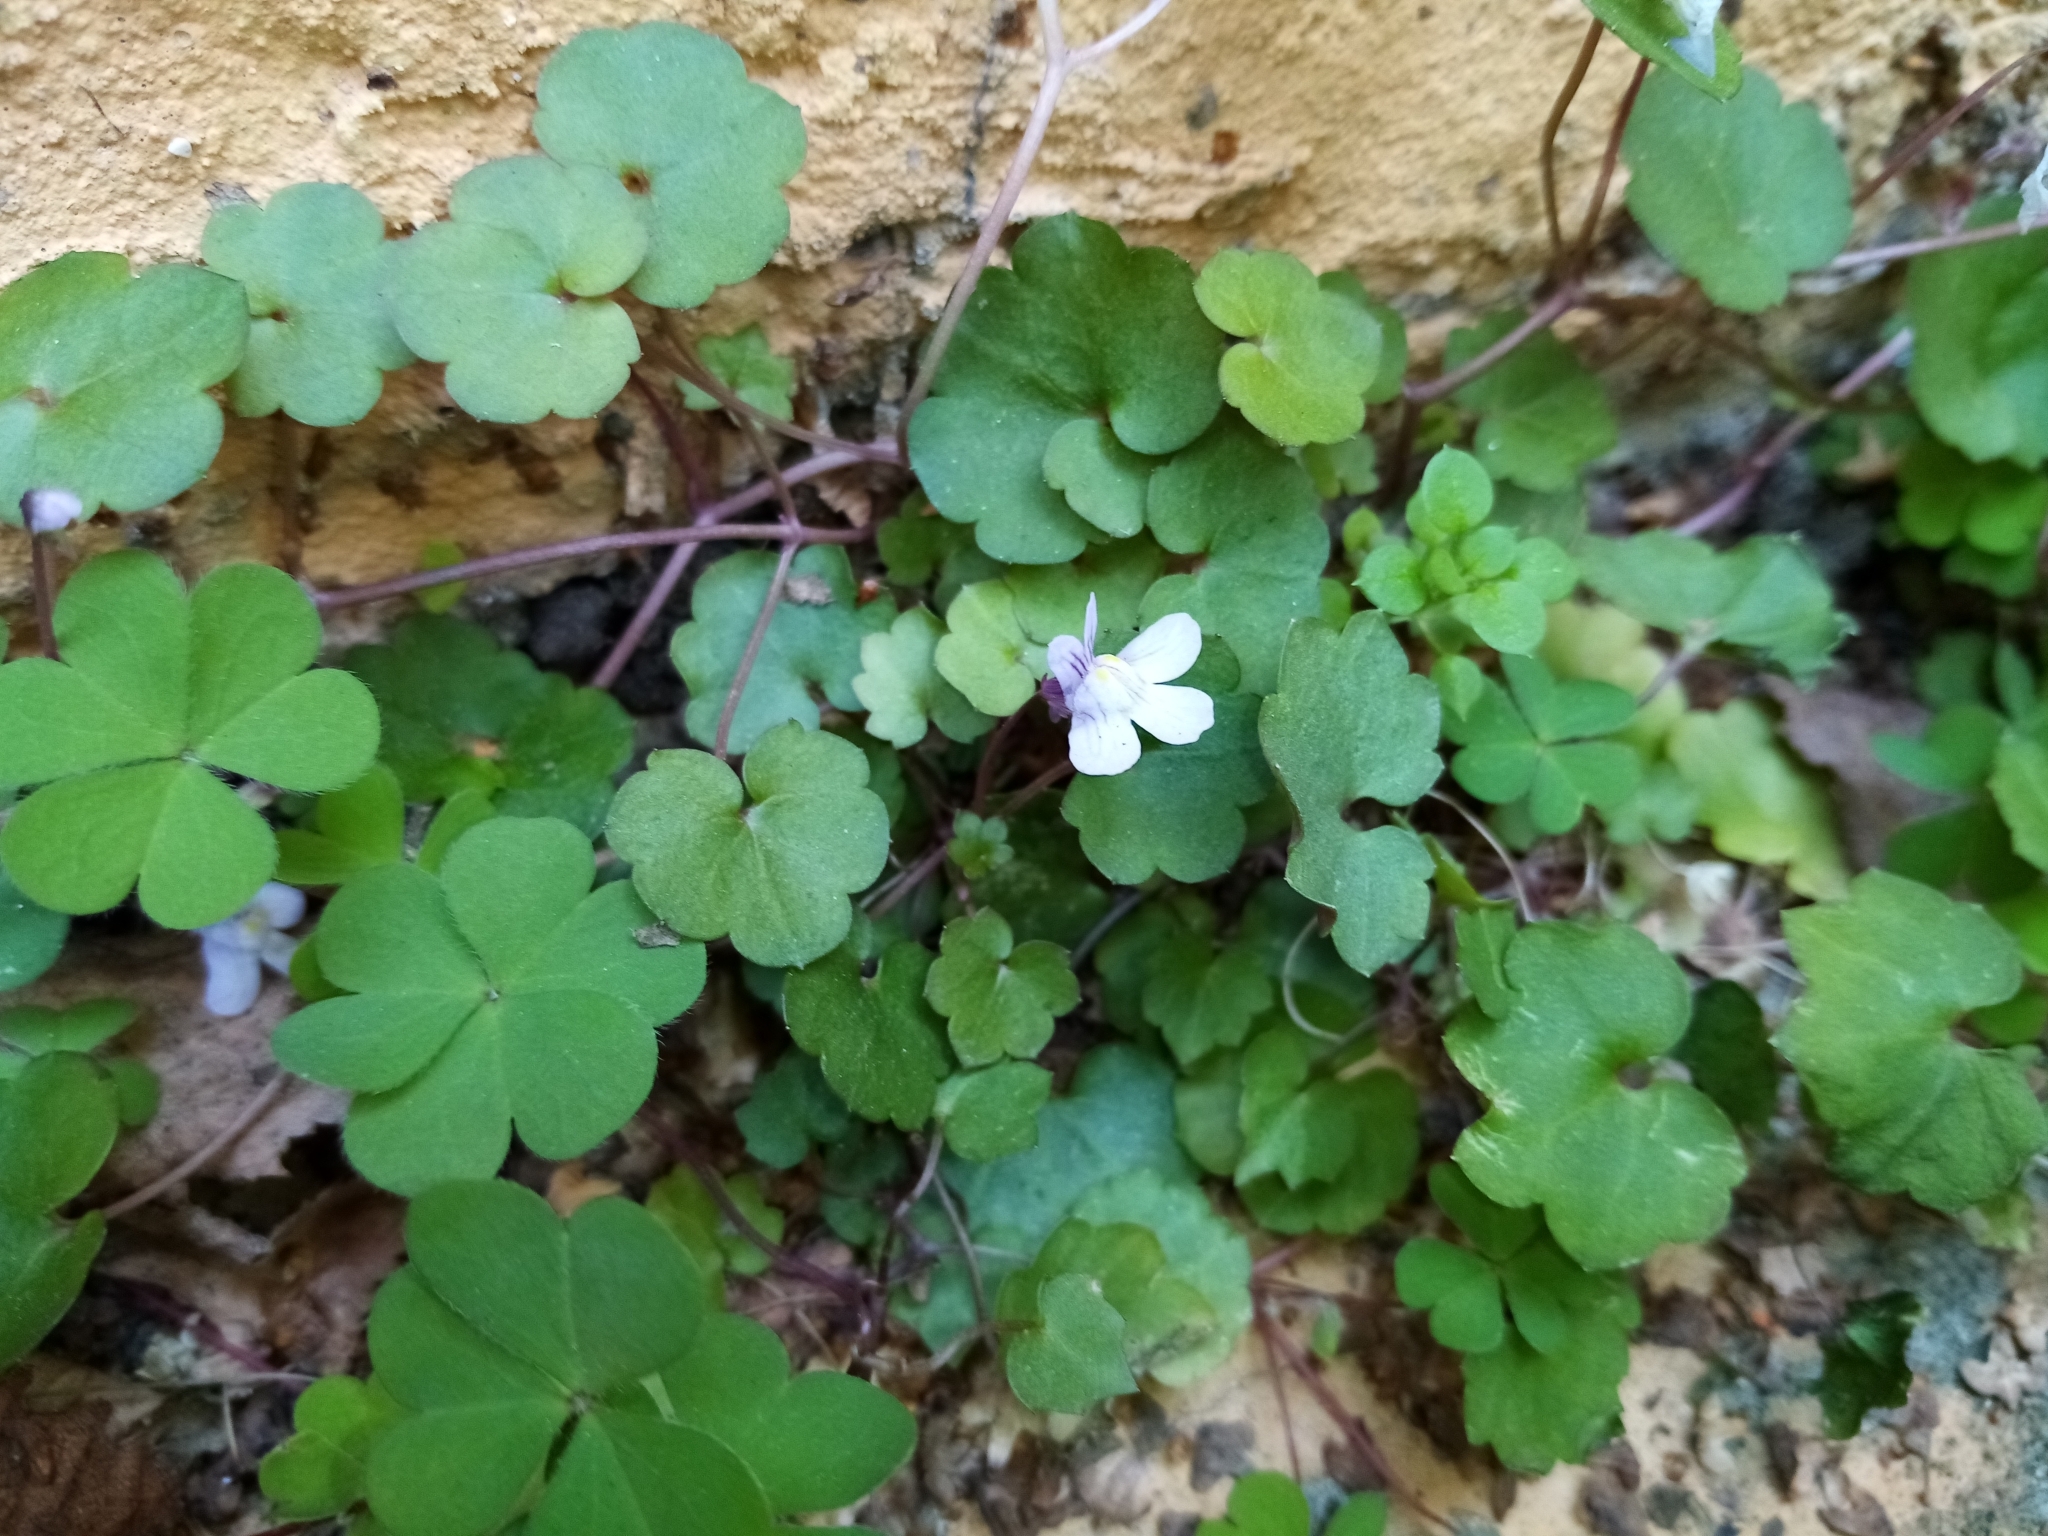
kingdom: Plantae
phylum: Tracheophyta
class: Magnoliopsida
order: Lamiales
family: Plantaginaceae
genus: Cymbalaria
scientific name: Cymbalaria muralis
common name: Ivy-leaved toadflax
